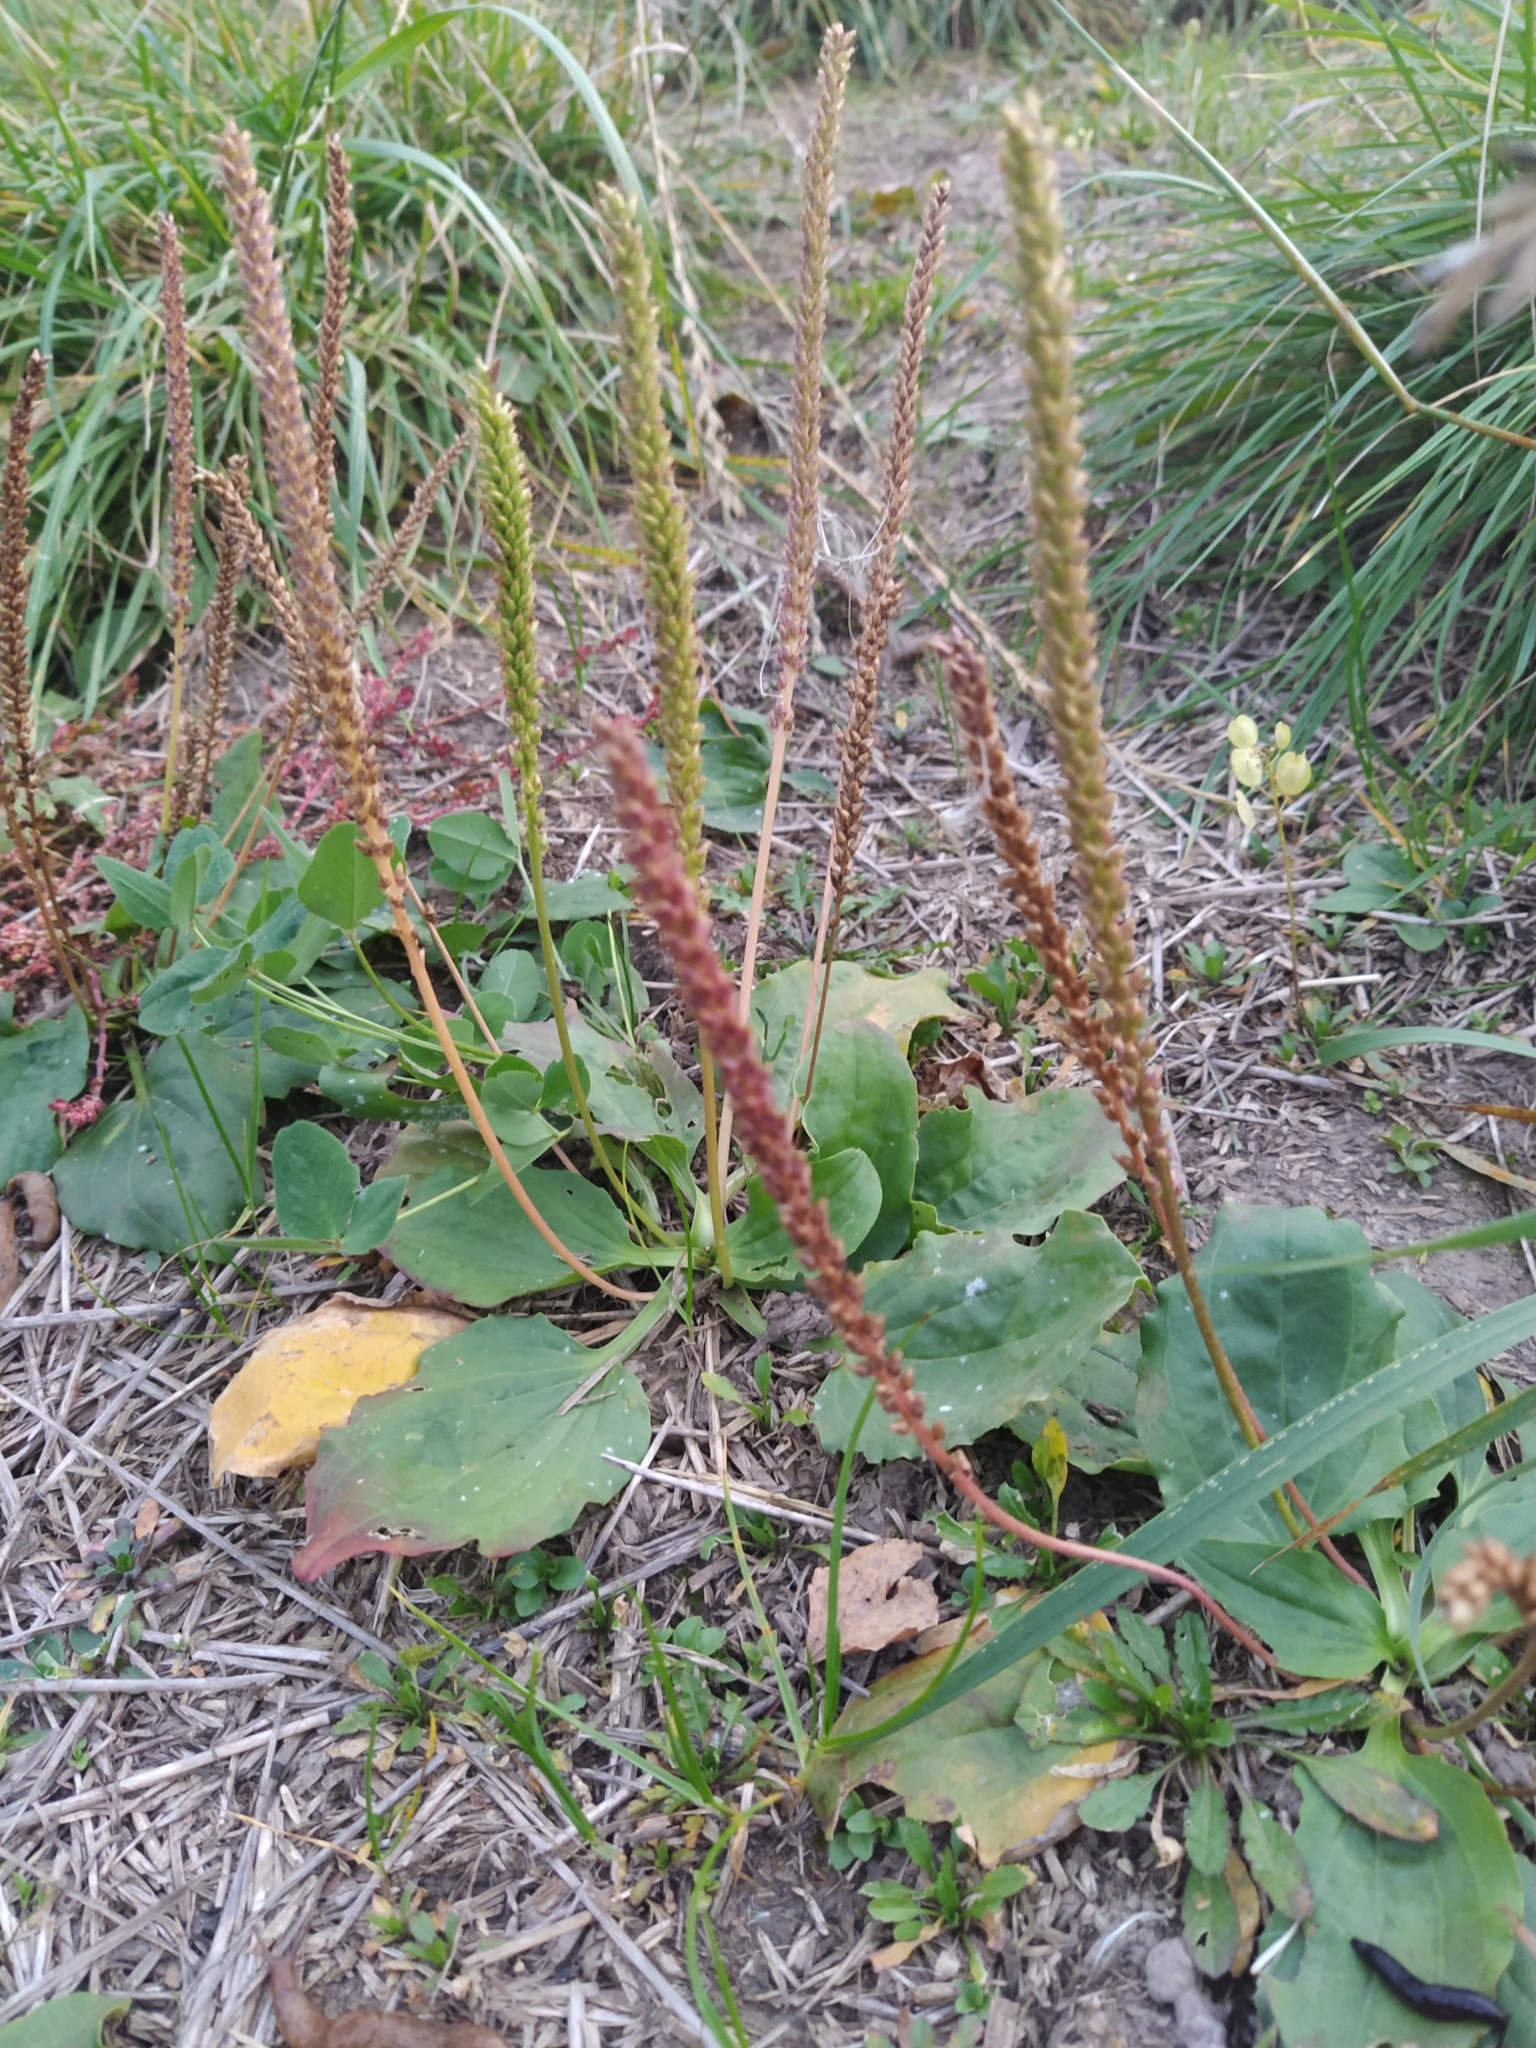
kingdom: Plantae
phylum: Tracheophyta
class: Magnoliopsida
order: Lamiales
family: Plantaginaceae
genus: Plantago
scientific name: Plantago major
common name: Common plantain
